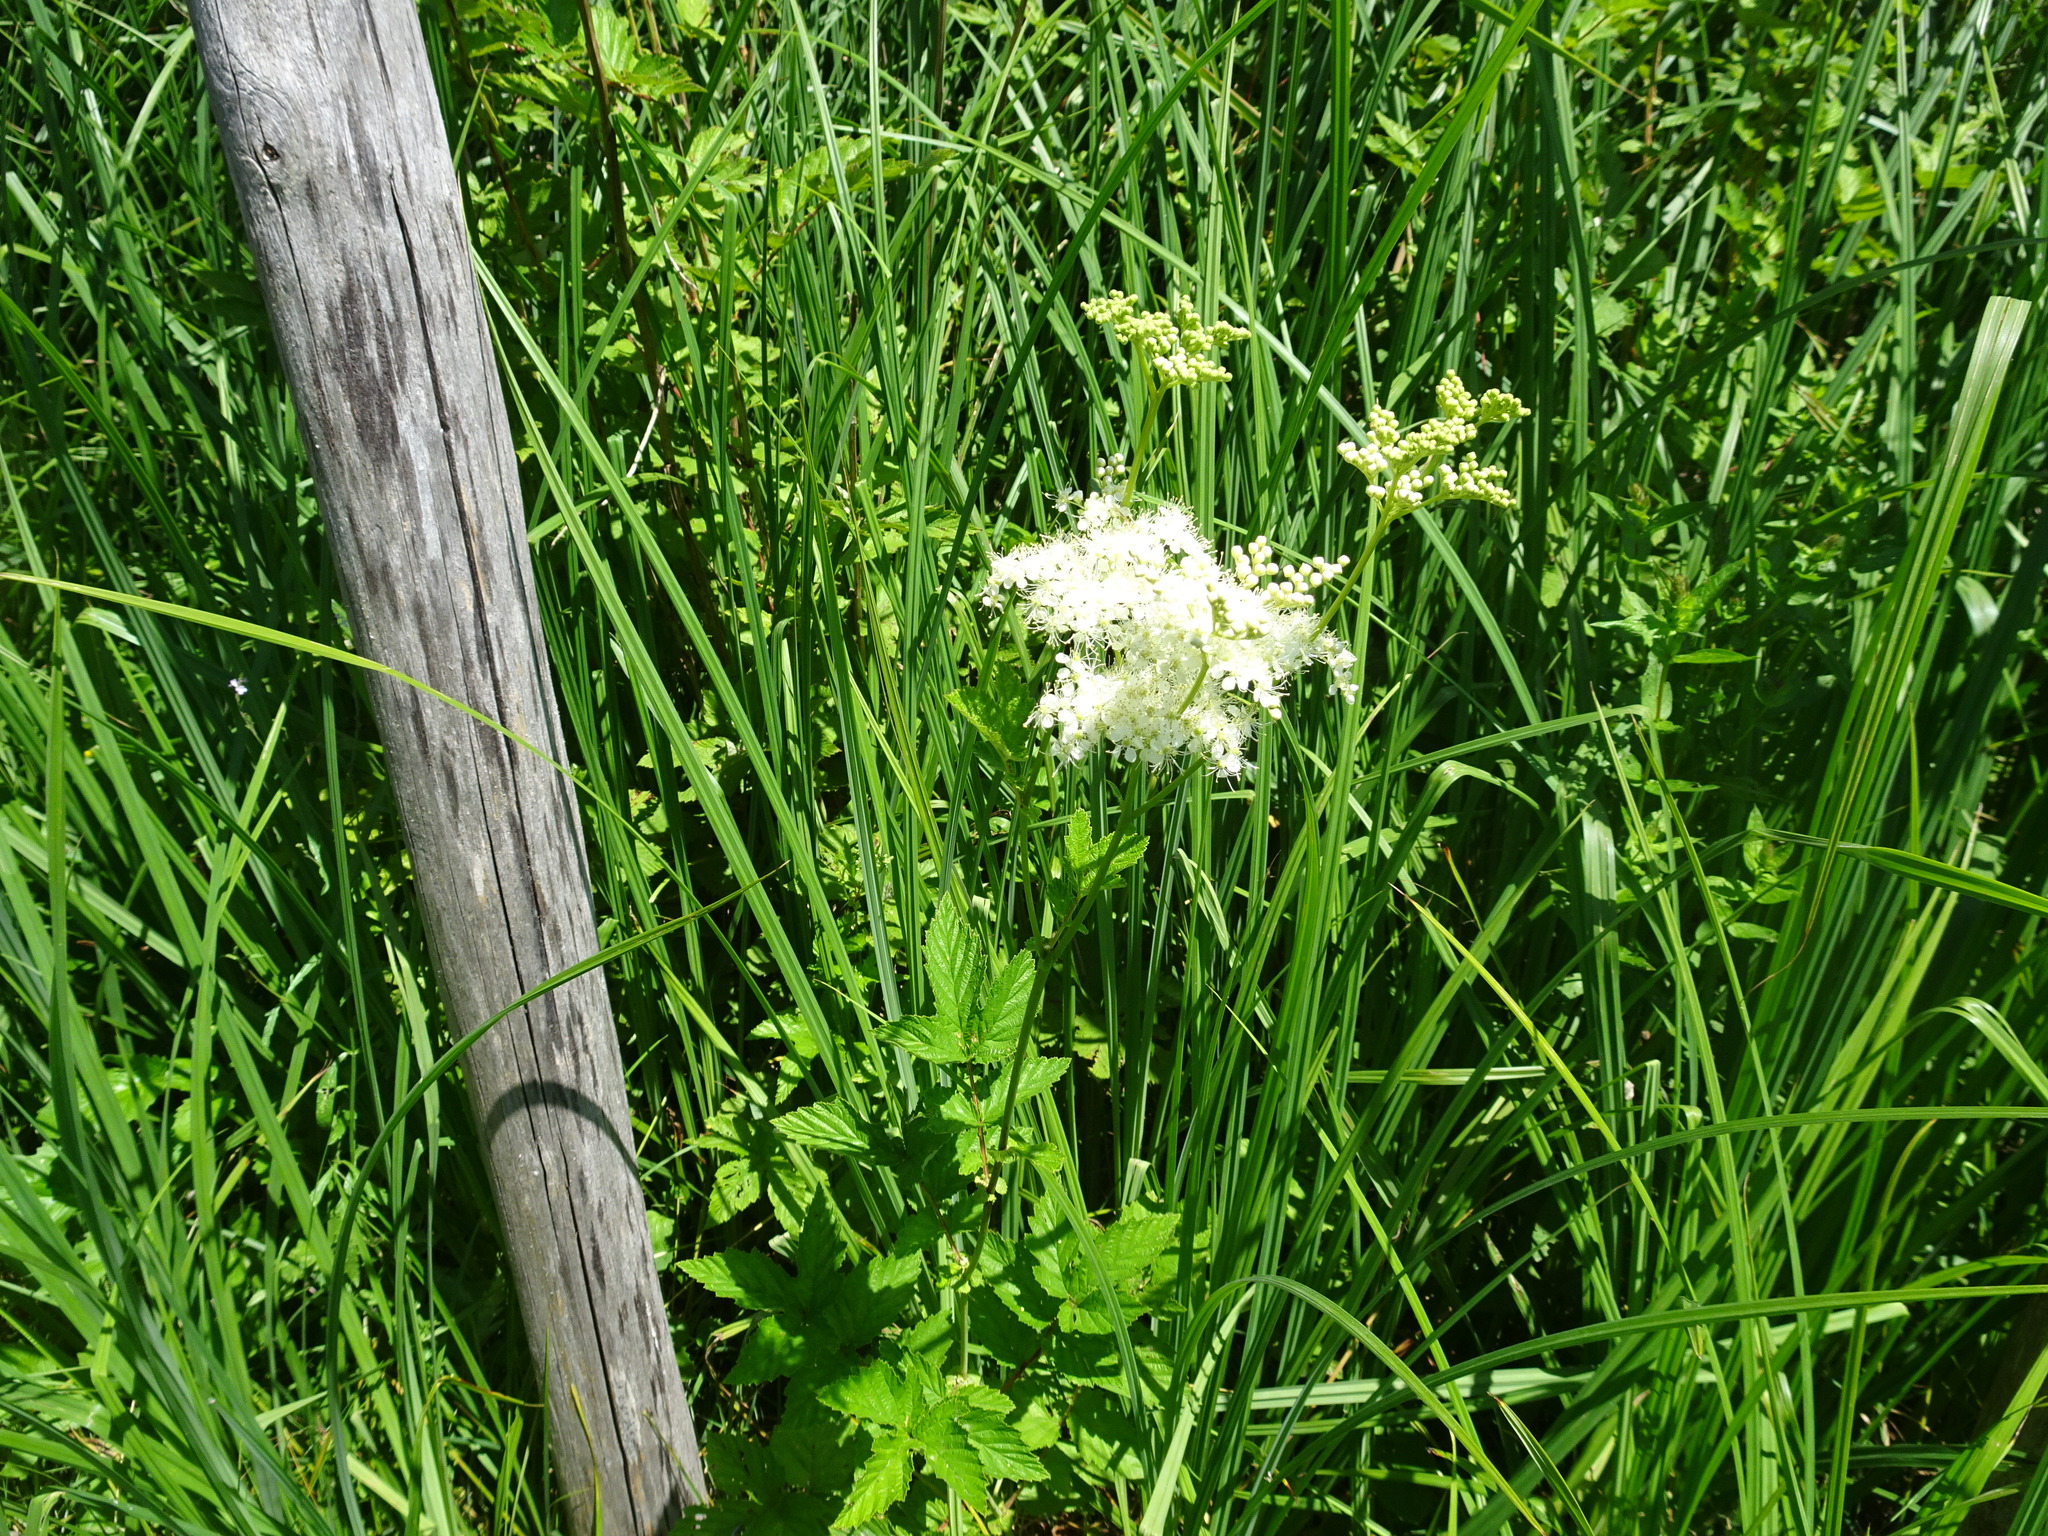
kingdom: Plantae
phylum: Tracheophyta
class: Magnoliopsida
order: Rosales
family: Rosaceae
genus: Filipendula
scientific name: Filipendula ulmaria
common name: Meadowsweet
